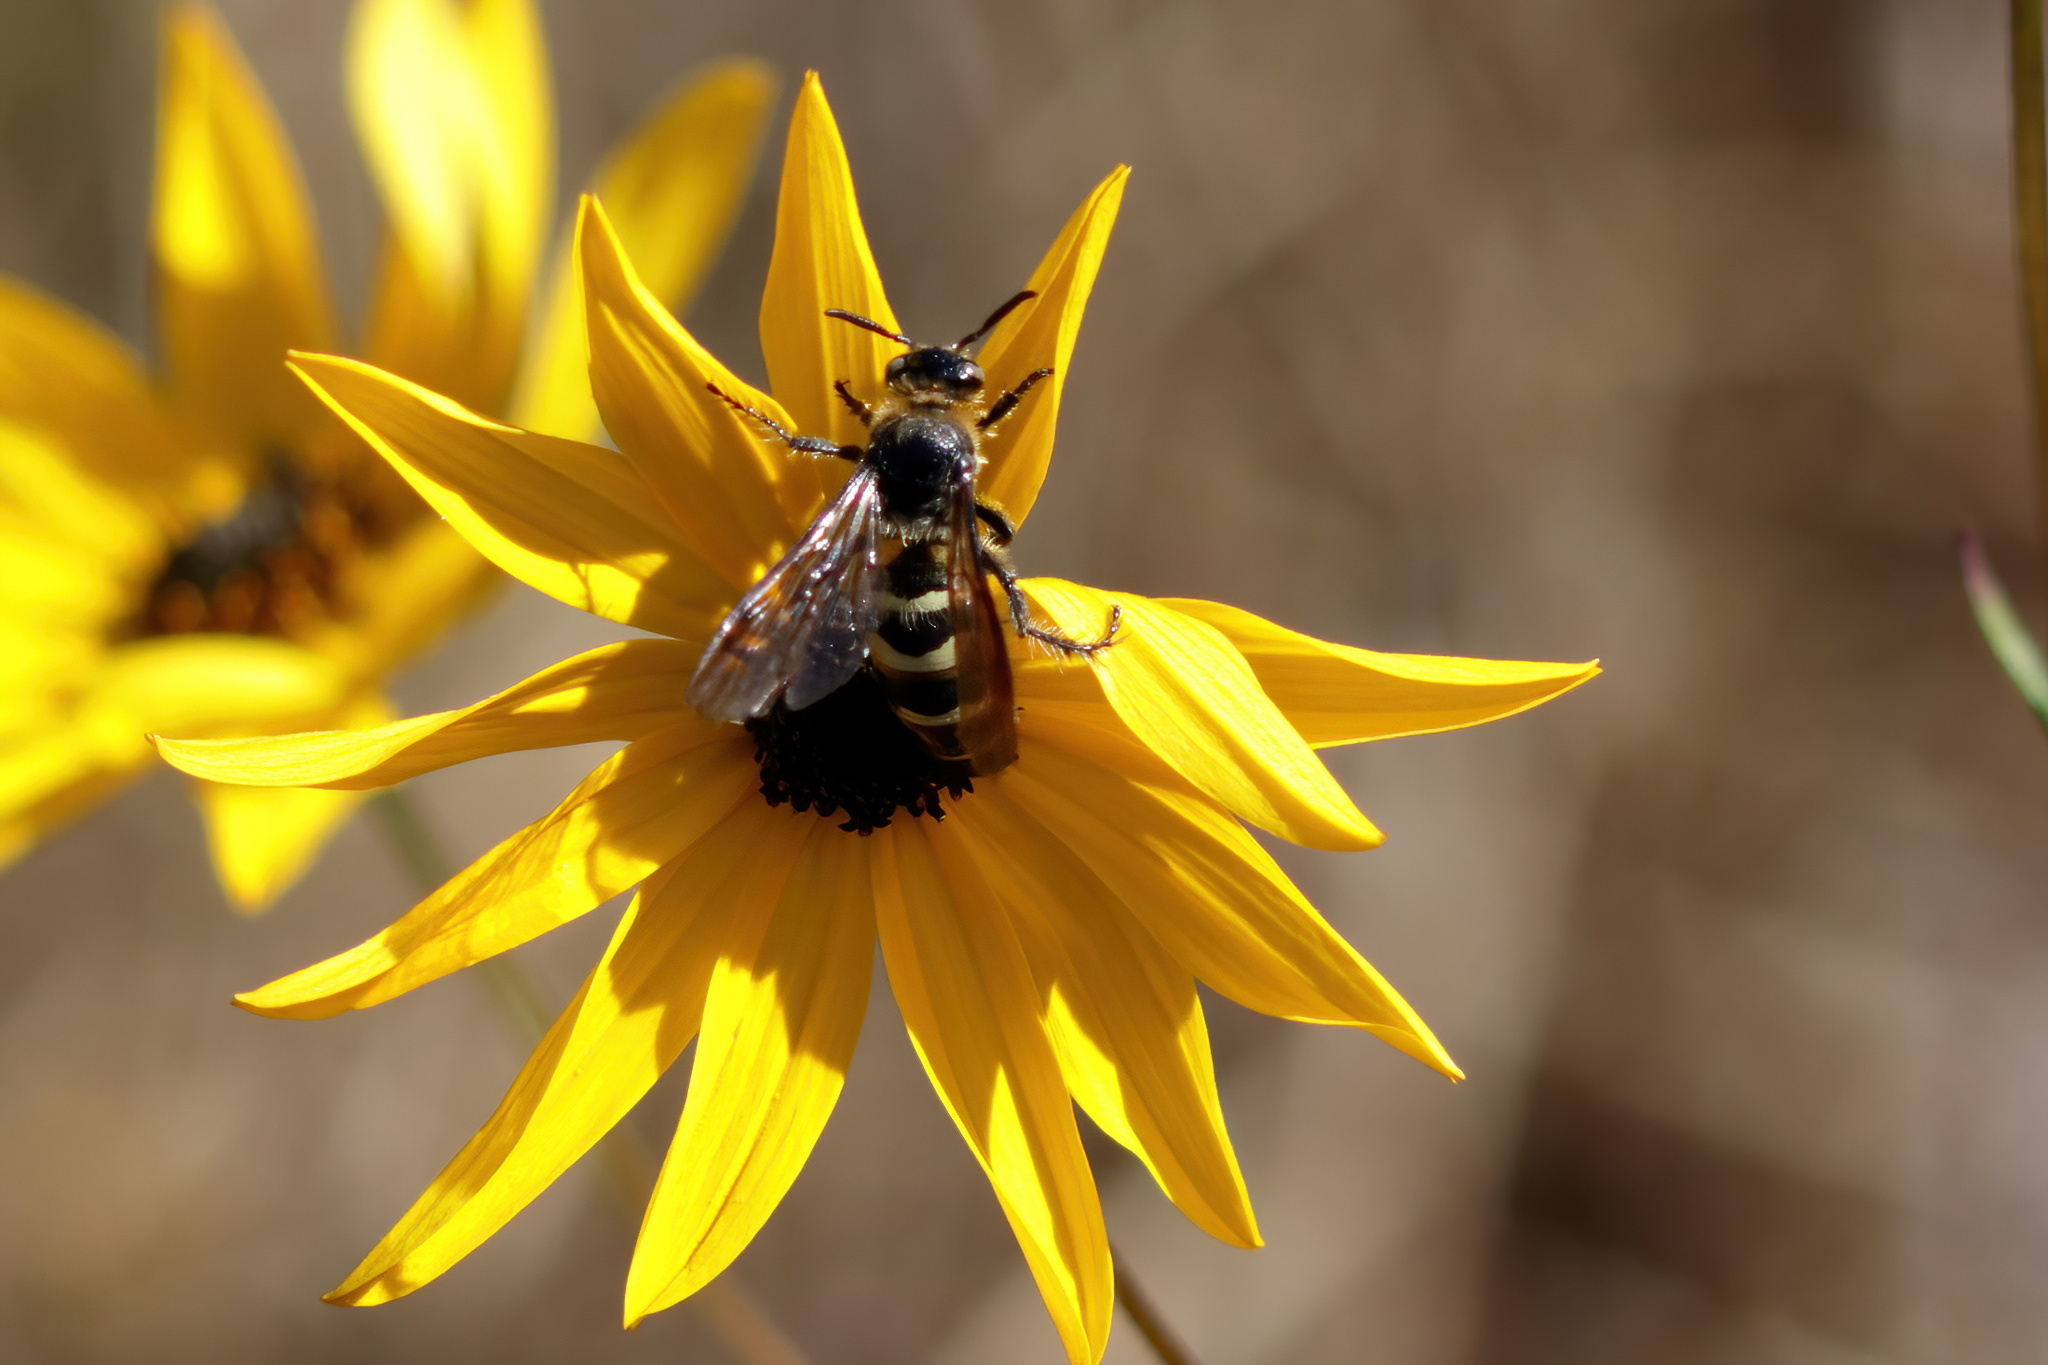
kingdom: Animalia
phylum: Arthropoda
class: Insecta
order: Hymenoptera
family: Scoliidae
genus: Dielis
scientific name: Dielis
